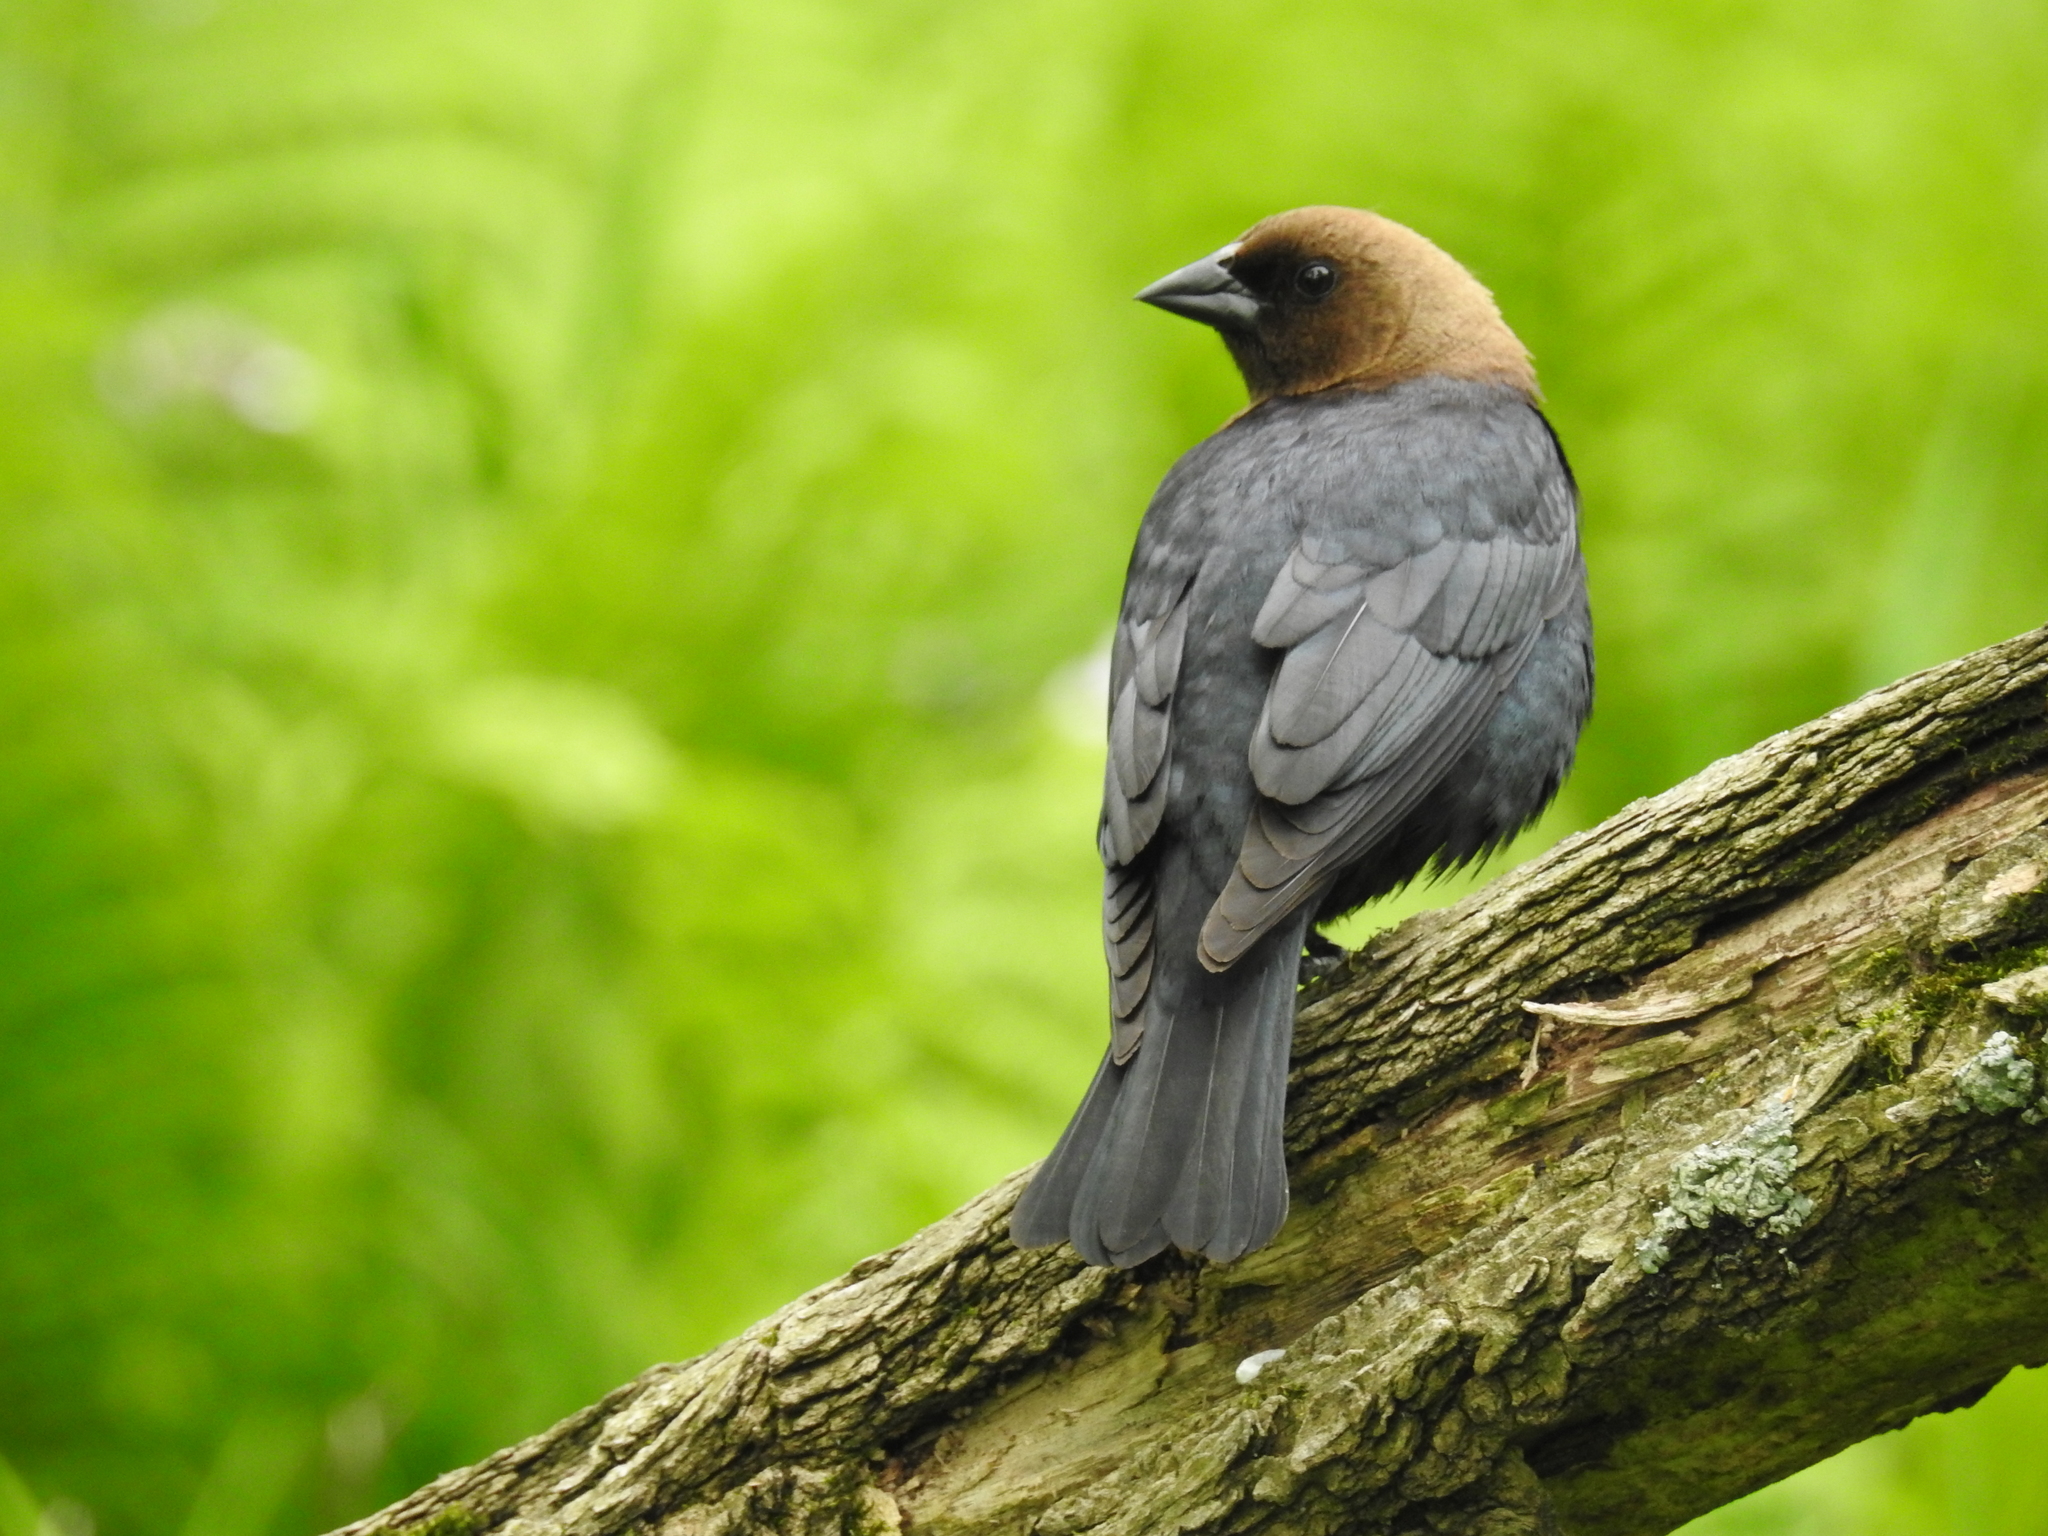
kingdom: Animalia
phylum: Chordata
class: Aves
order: Passeriformes
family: Icteridae
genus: Molothrus
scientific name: Molothrus ater
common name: Brown-headed cowbird
